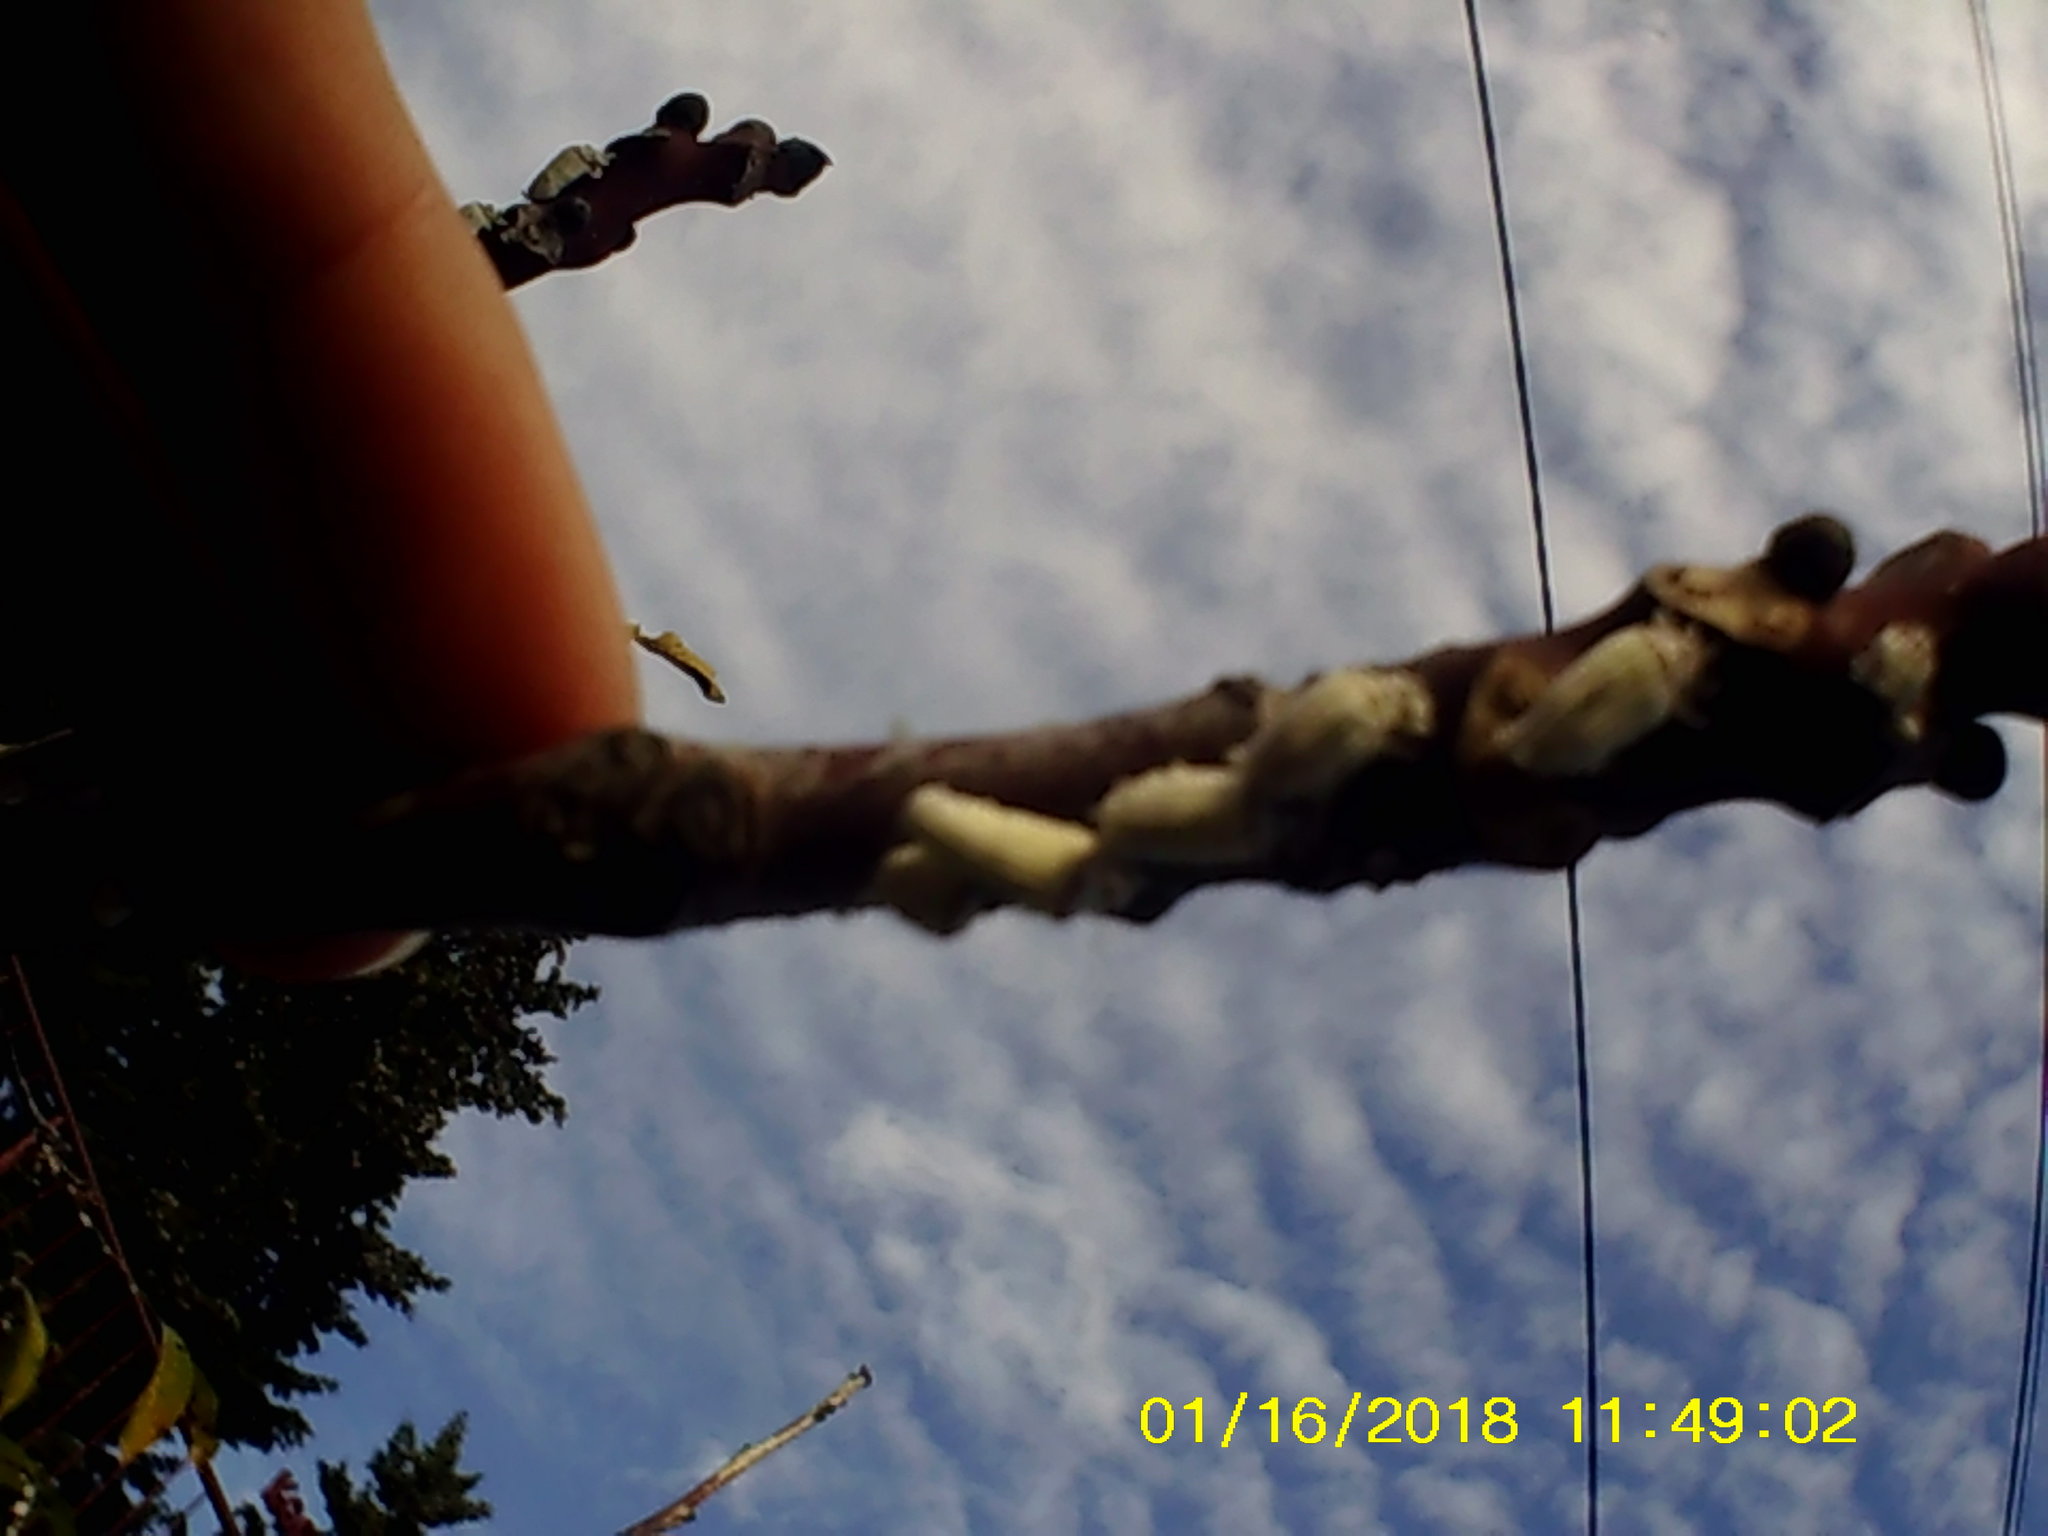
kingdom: Animalia
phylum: Arthropoda
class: Insecta
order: Hemiptera
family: Margarodidae
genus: Icerya
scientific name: Icerya purchasi
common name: Cottony cushion scale
